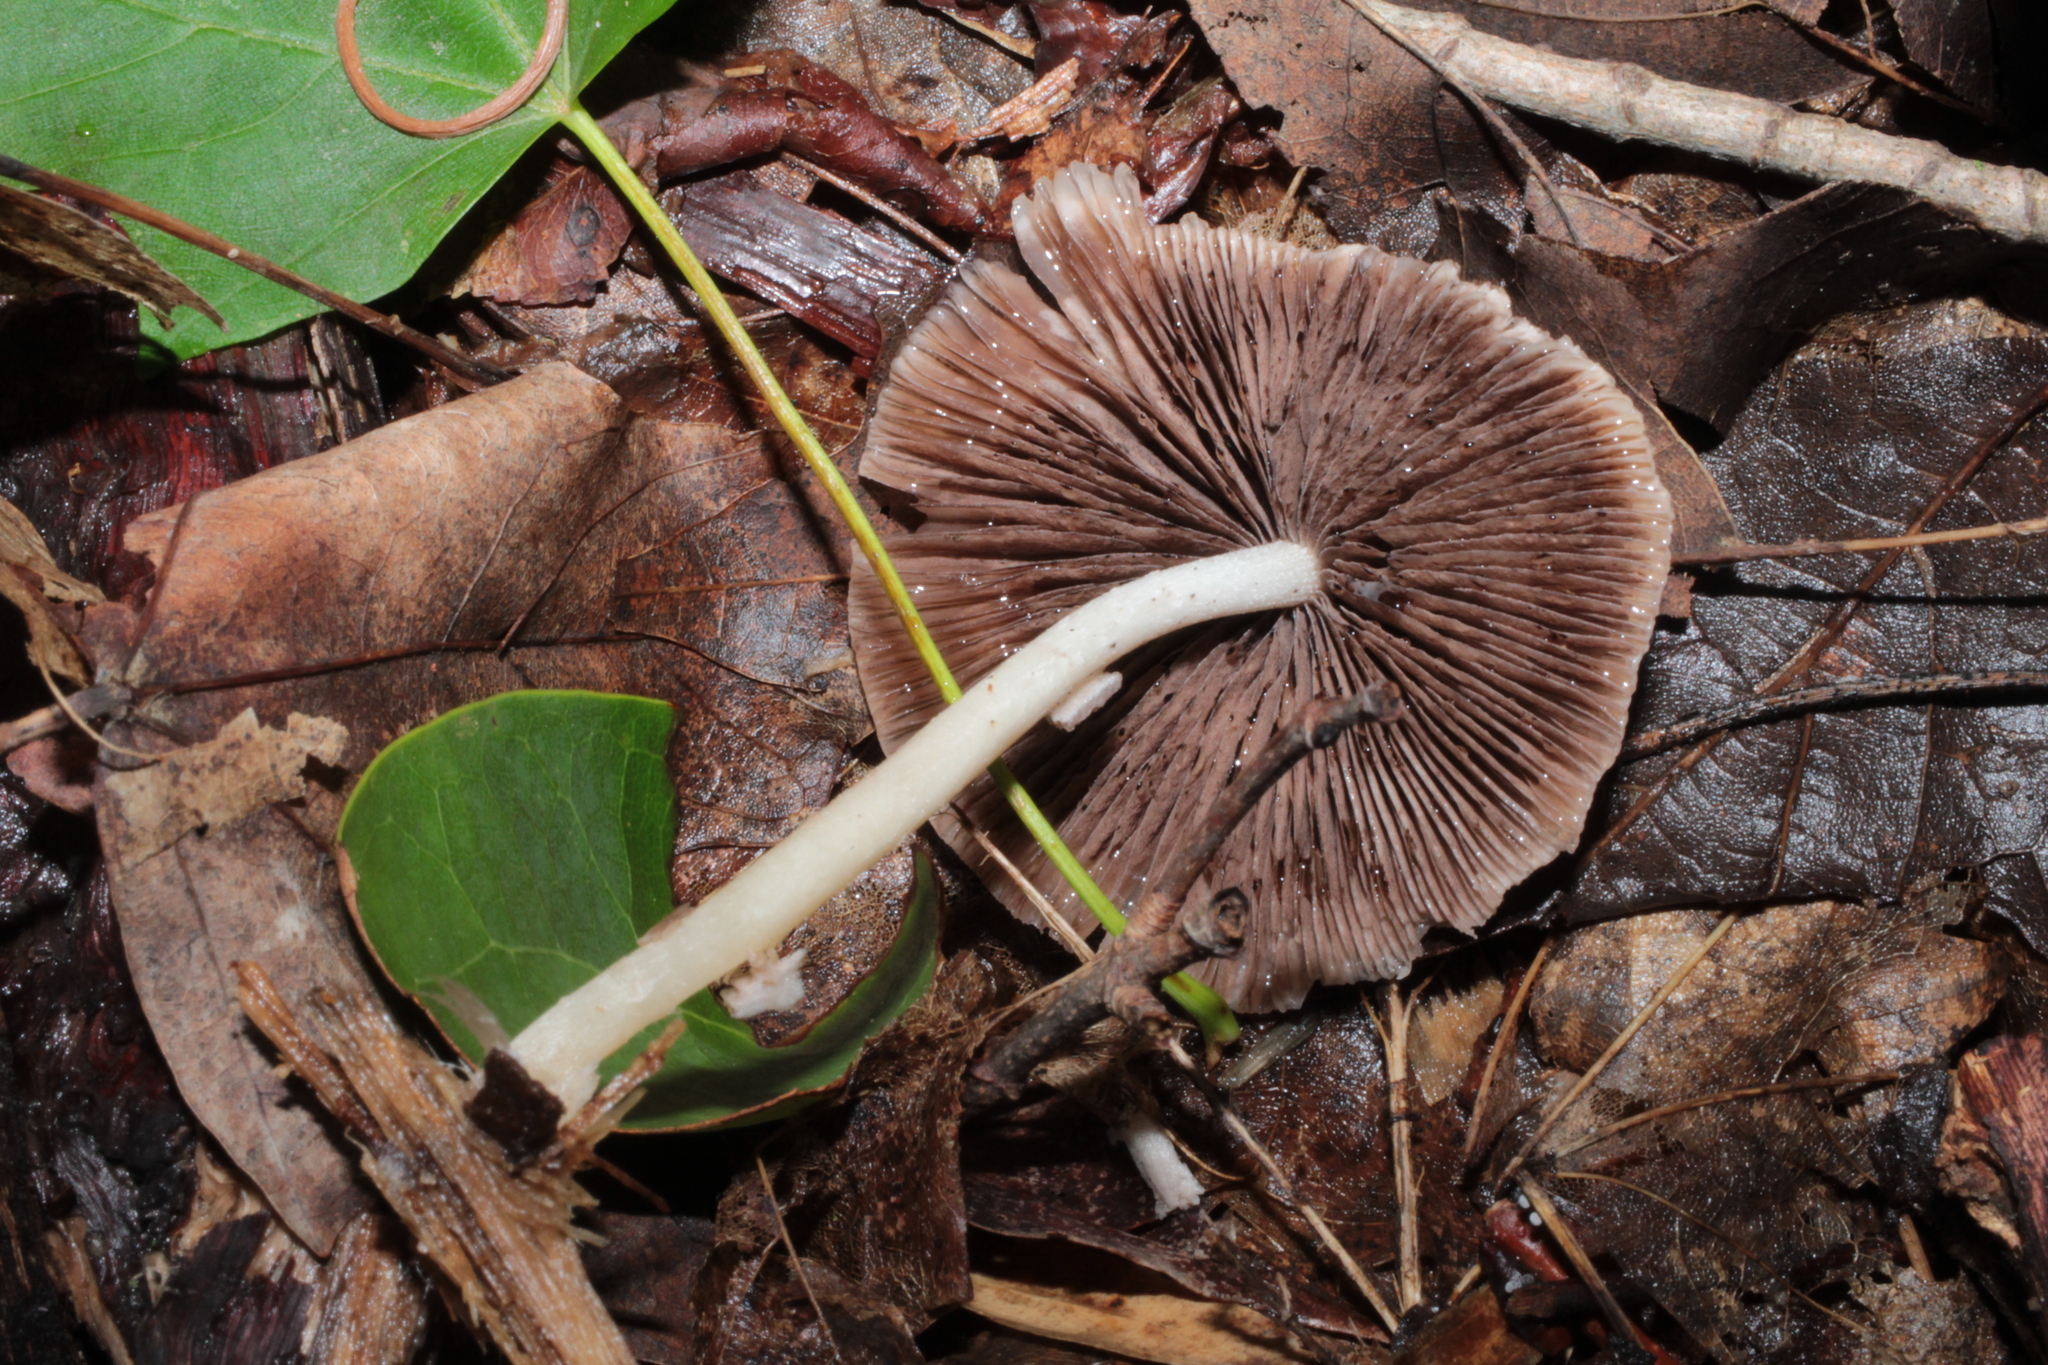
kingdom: Fungi
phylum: Basidiomycota
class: Agaricomycetes
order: Agaricales
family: Psathyrellaceae
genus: Candolleomyces
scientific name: Candolleomyces candolleanus
